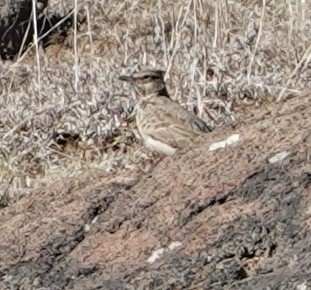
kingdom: Animalia
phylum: Chordata
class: Aves
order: Passeriformes
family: Alaudidae
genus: Galerida
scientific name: Galerida cristata
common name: Crested lark
